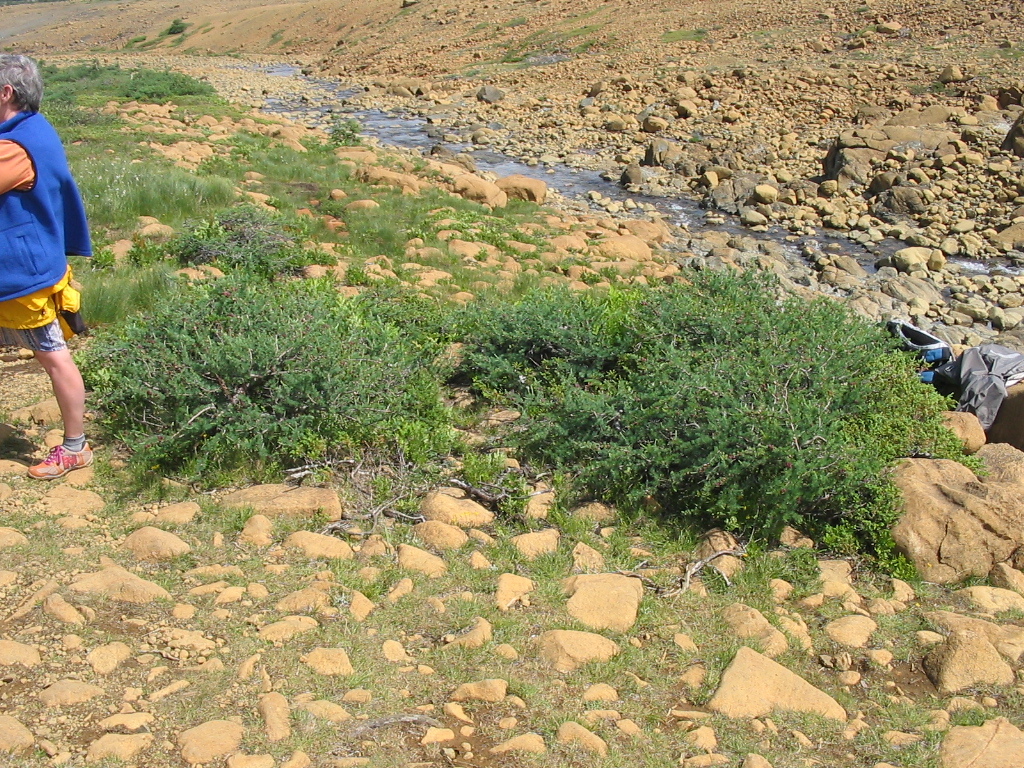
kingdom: Plantae
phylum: Tracheophyta
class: Pinopsida
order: Pinales
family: Pinaceae
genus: Larix
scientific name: Larix laricina
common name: American larch
